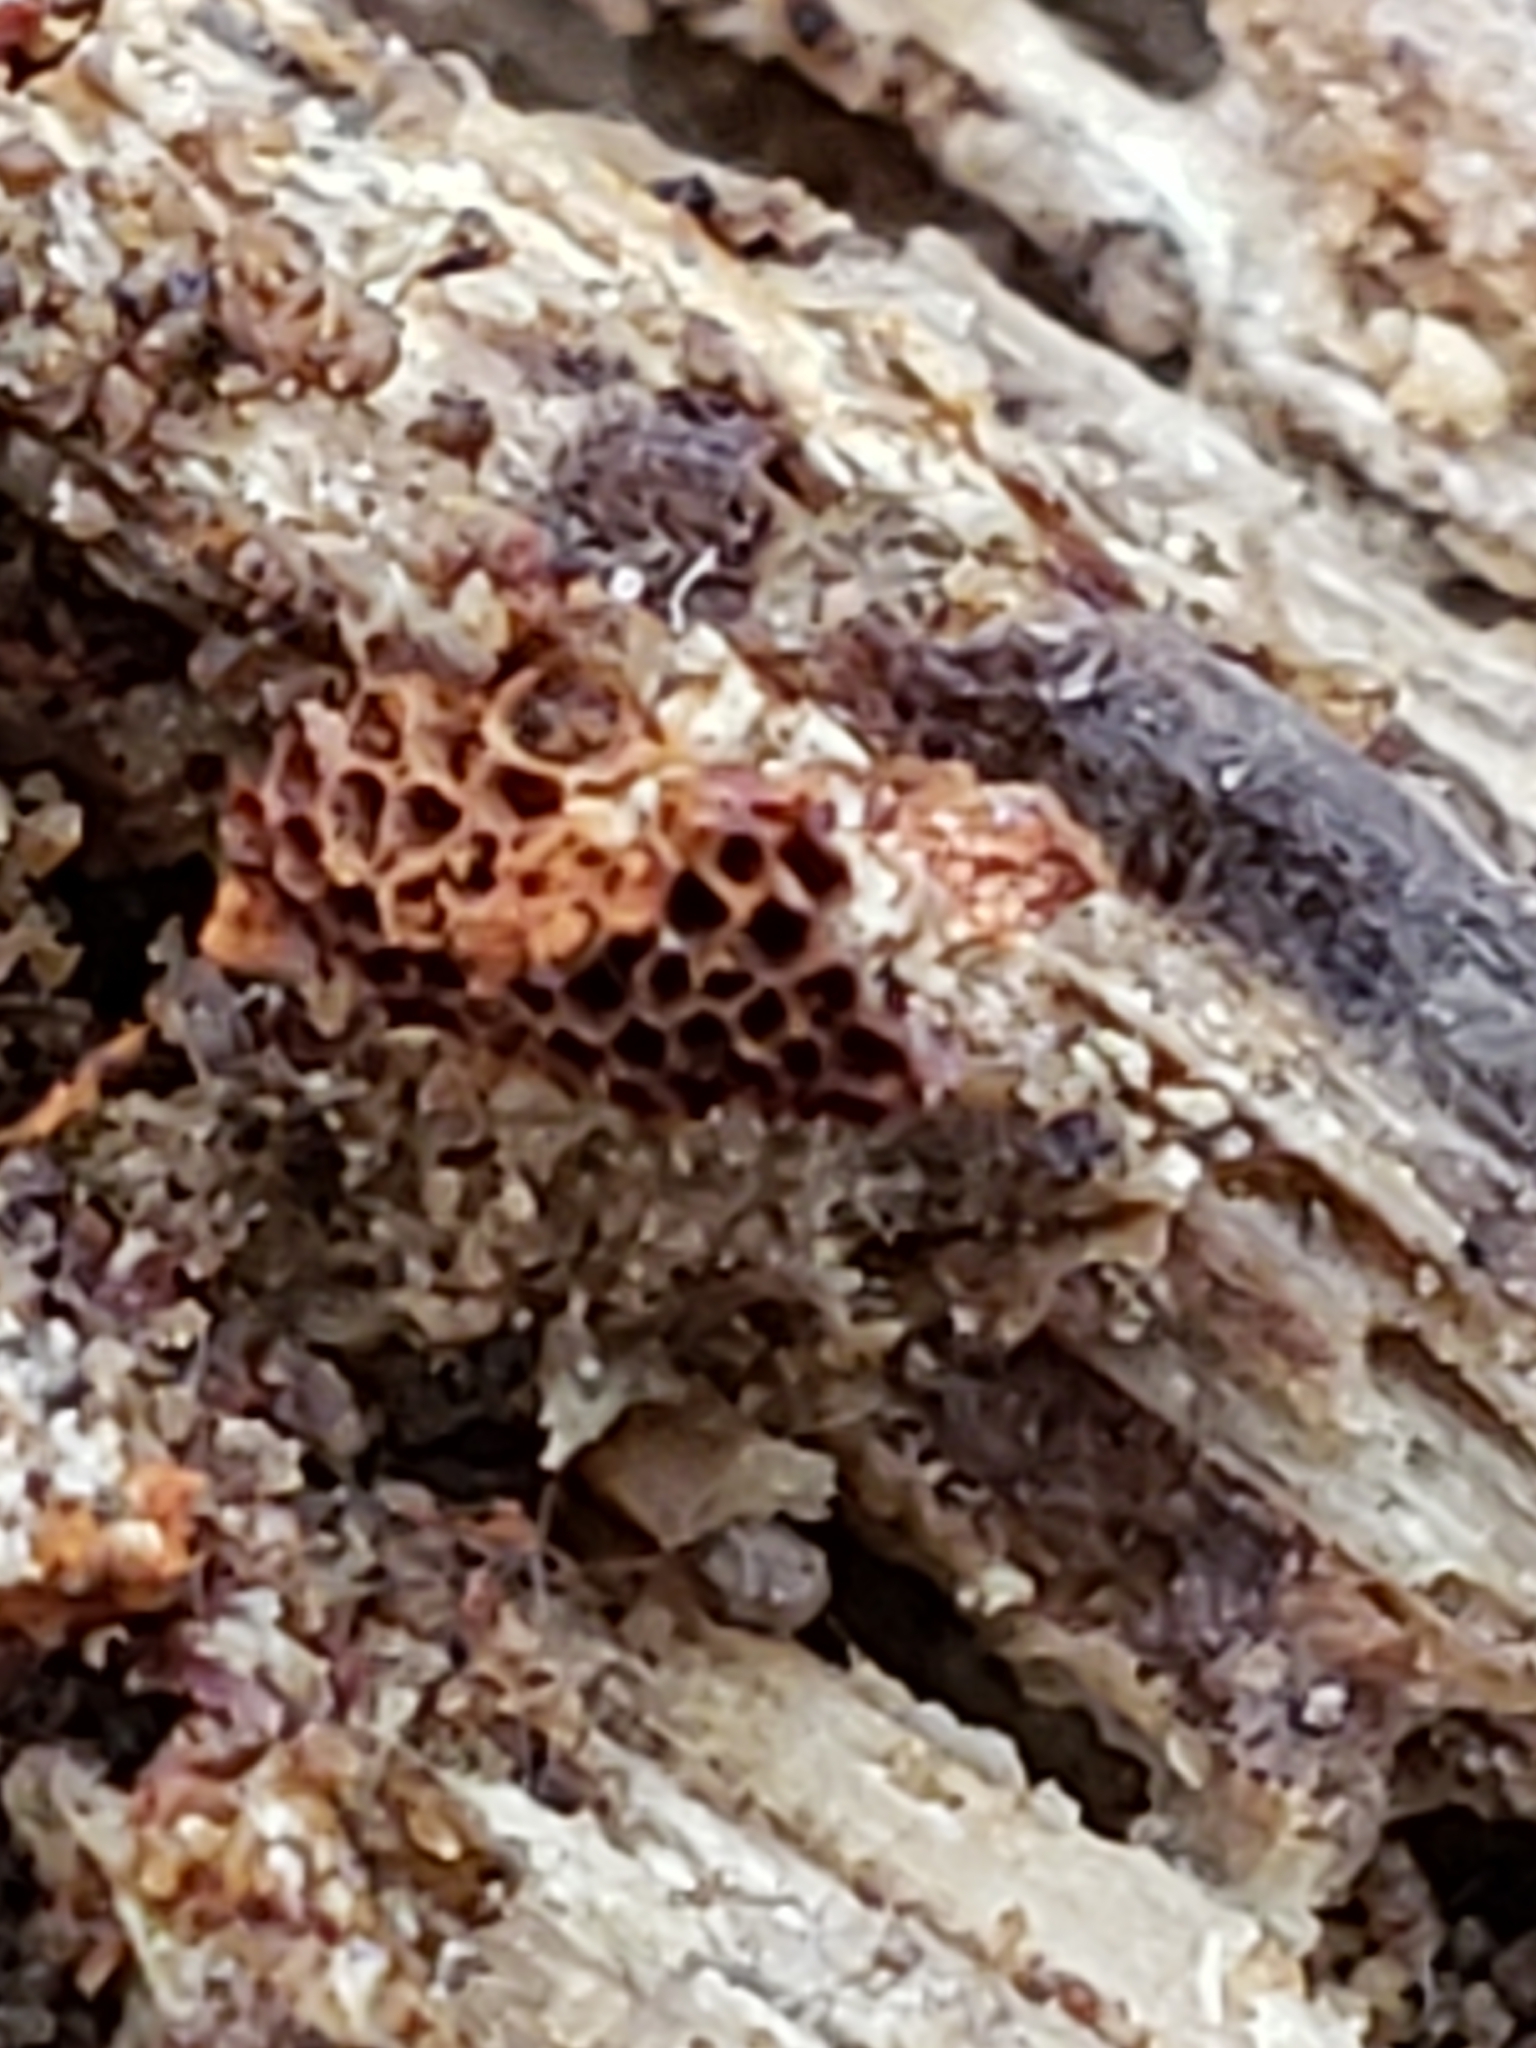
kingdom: Protozoa
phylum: Mycetozoa
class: Myxomycetes
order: Trichiales
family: Trichiaceae
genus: Metatrichia
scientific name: Metatrichia vesparia
